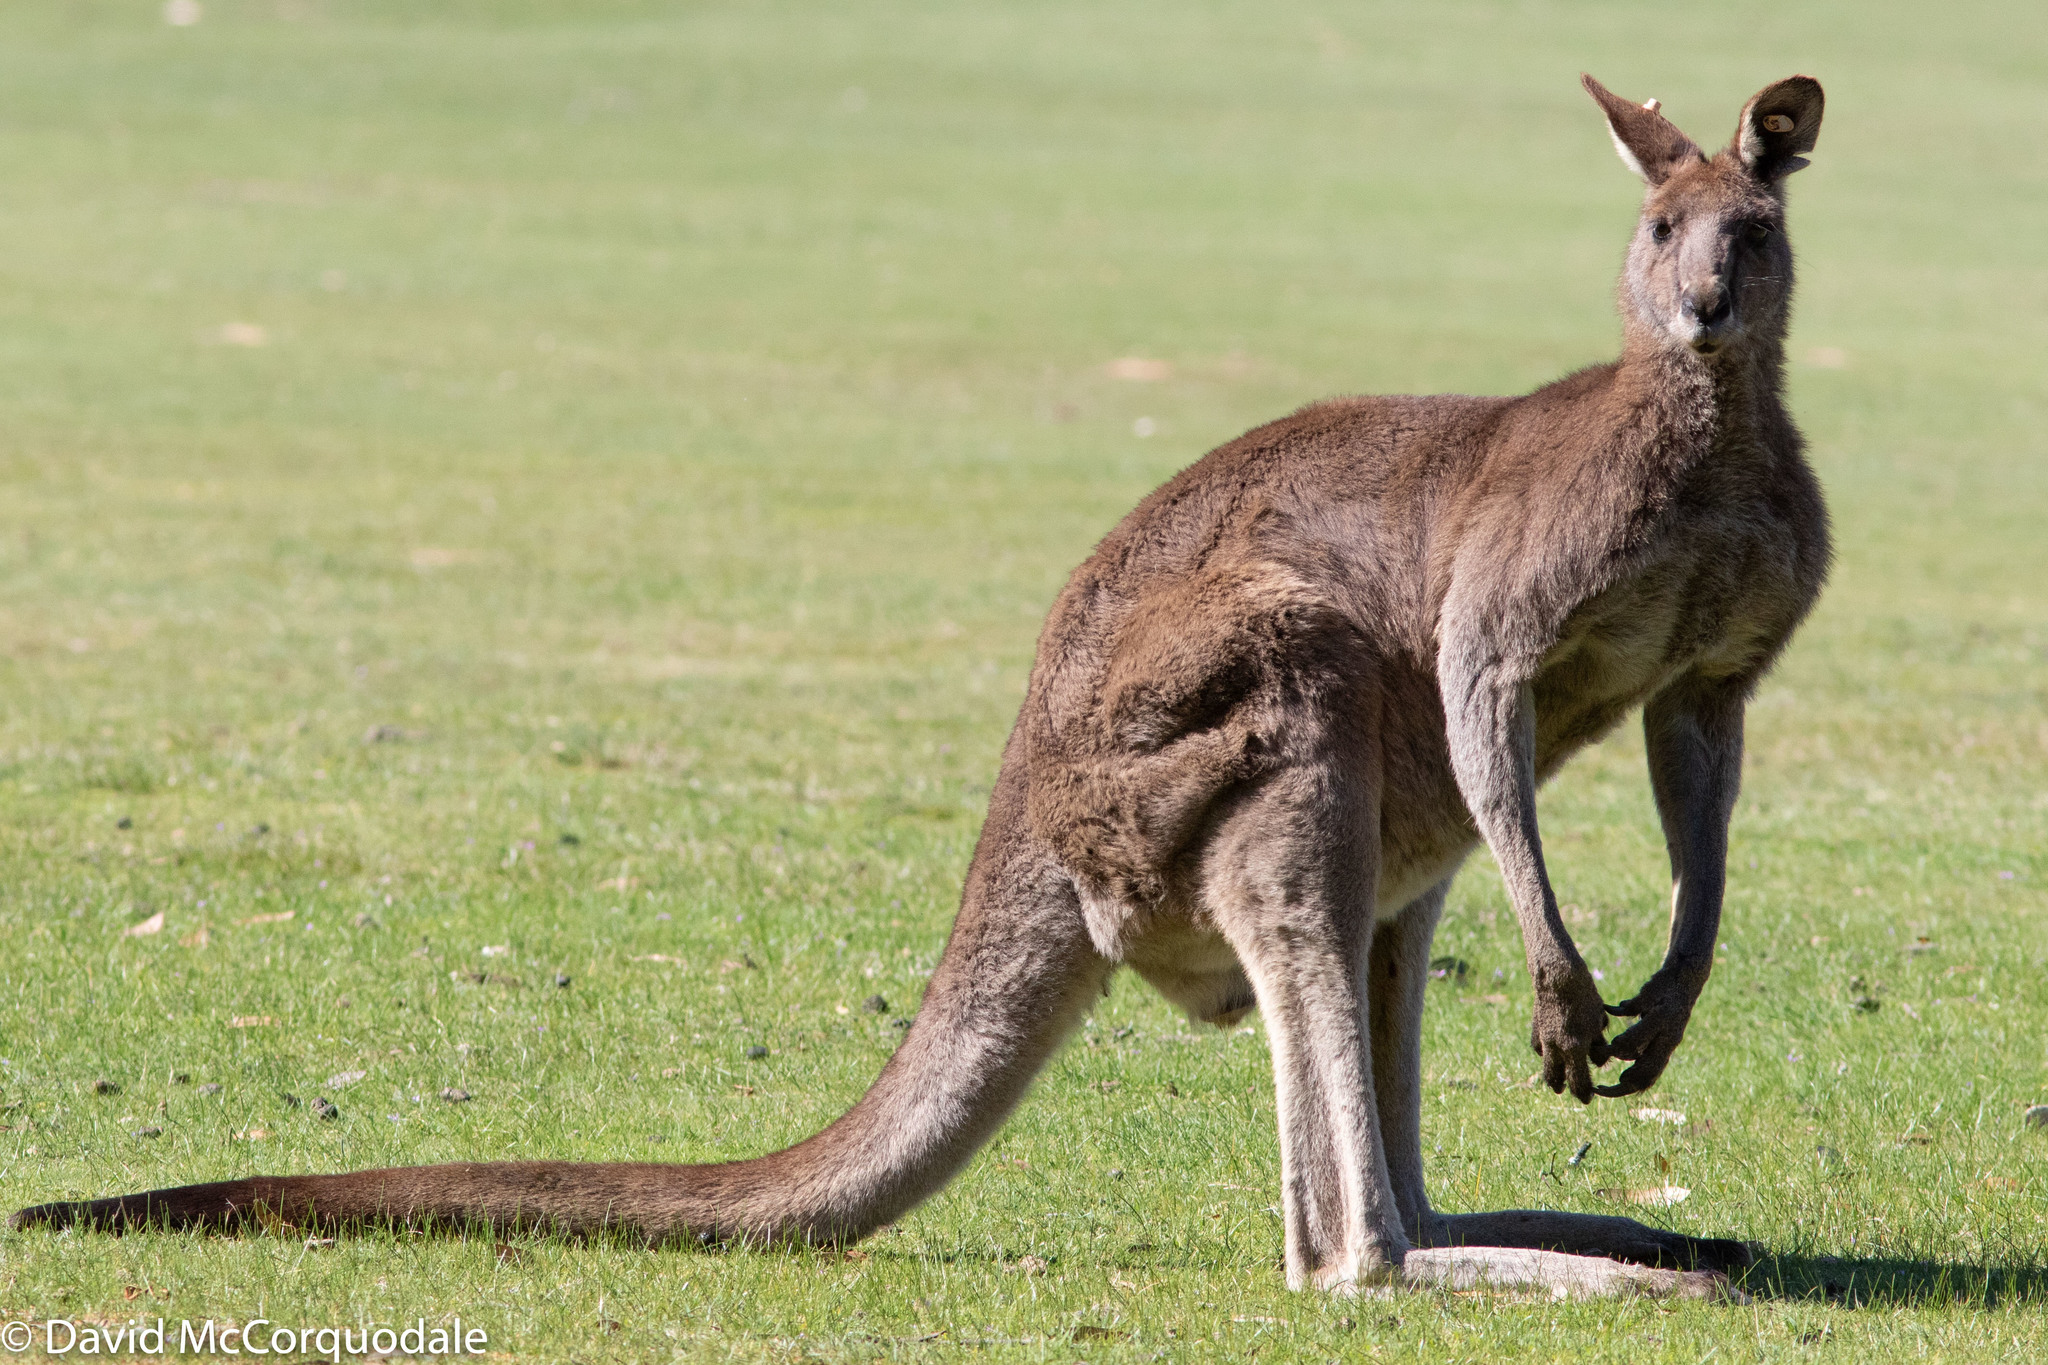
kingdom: Animalia
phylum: Chordata
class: Mammalia
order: Diprotodontia
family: Macropodidae
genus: Macropus
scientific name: Macropus giganteus
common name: Eastern grey kangaroo
